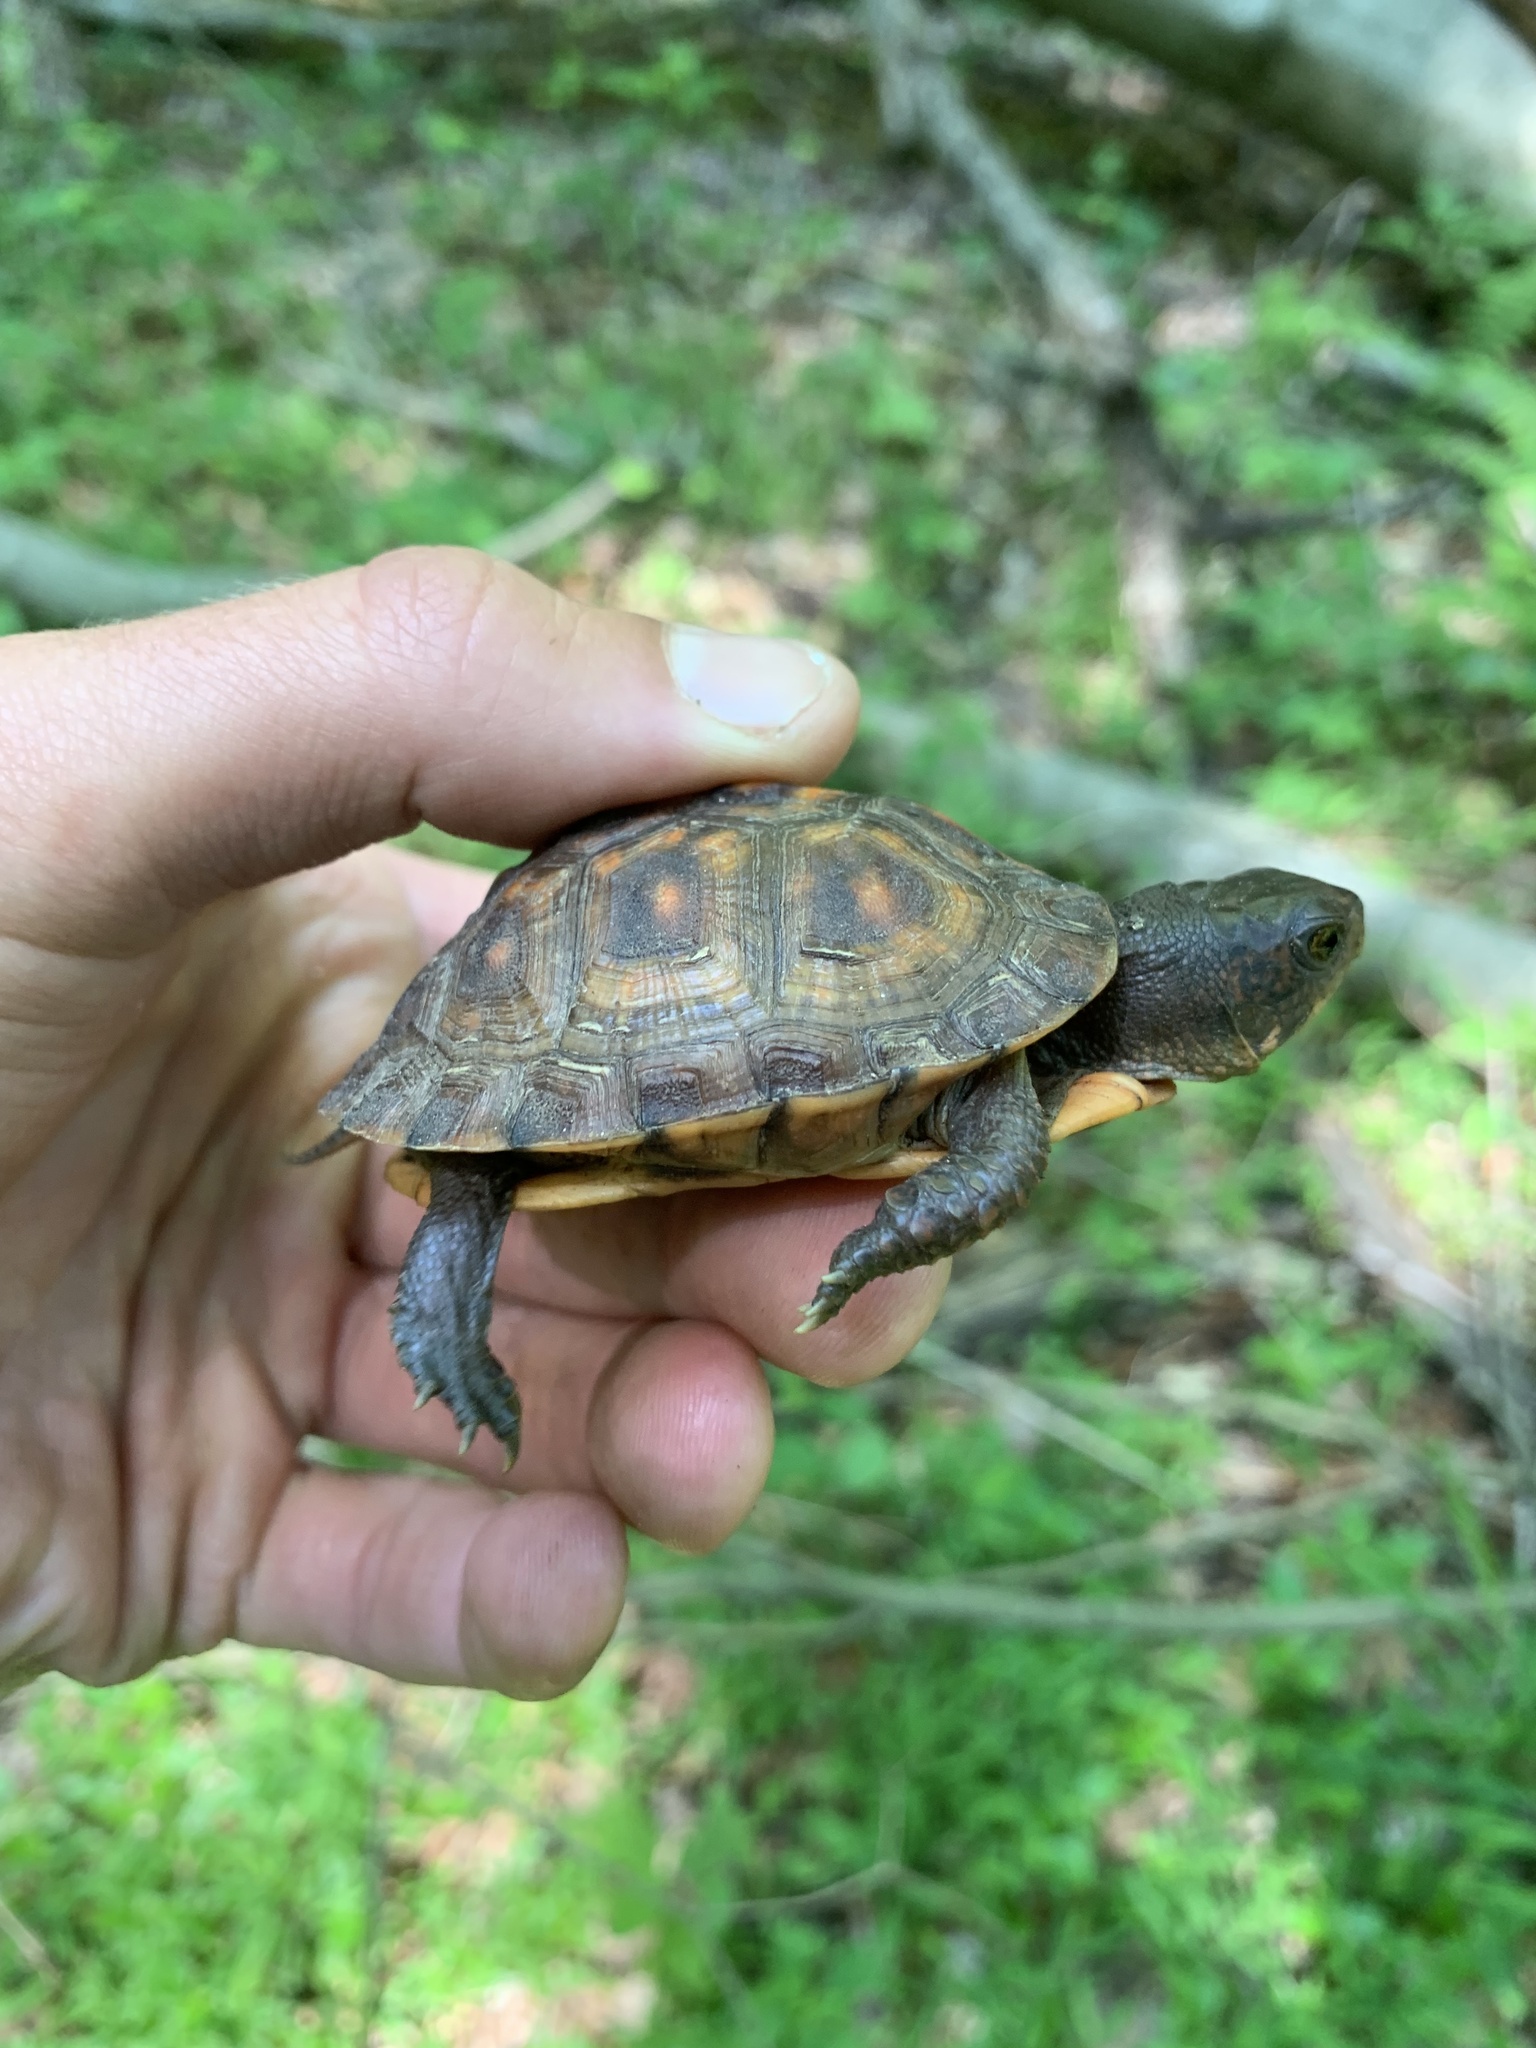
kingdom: Animalia
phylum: Chordata
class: Testudines
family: Emydidae
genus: Terrapene
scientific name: Terrapene carolina
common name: Common box turtle
